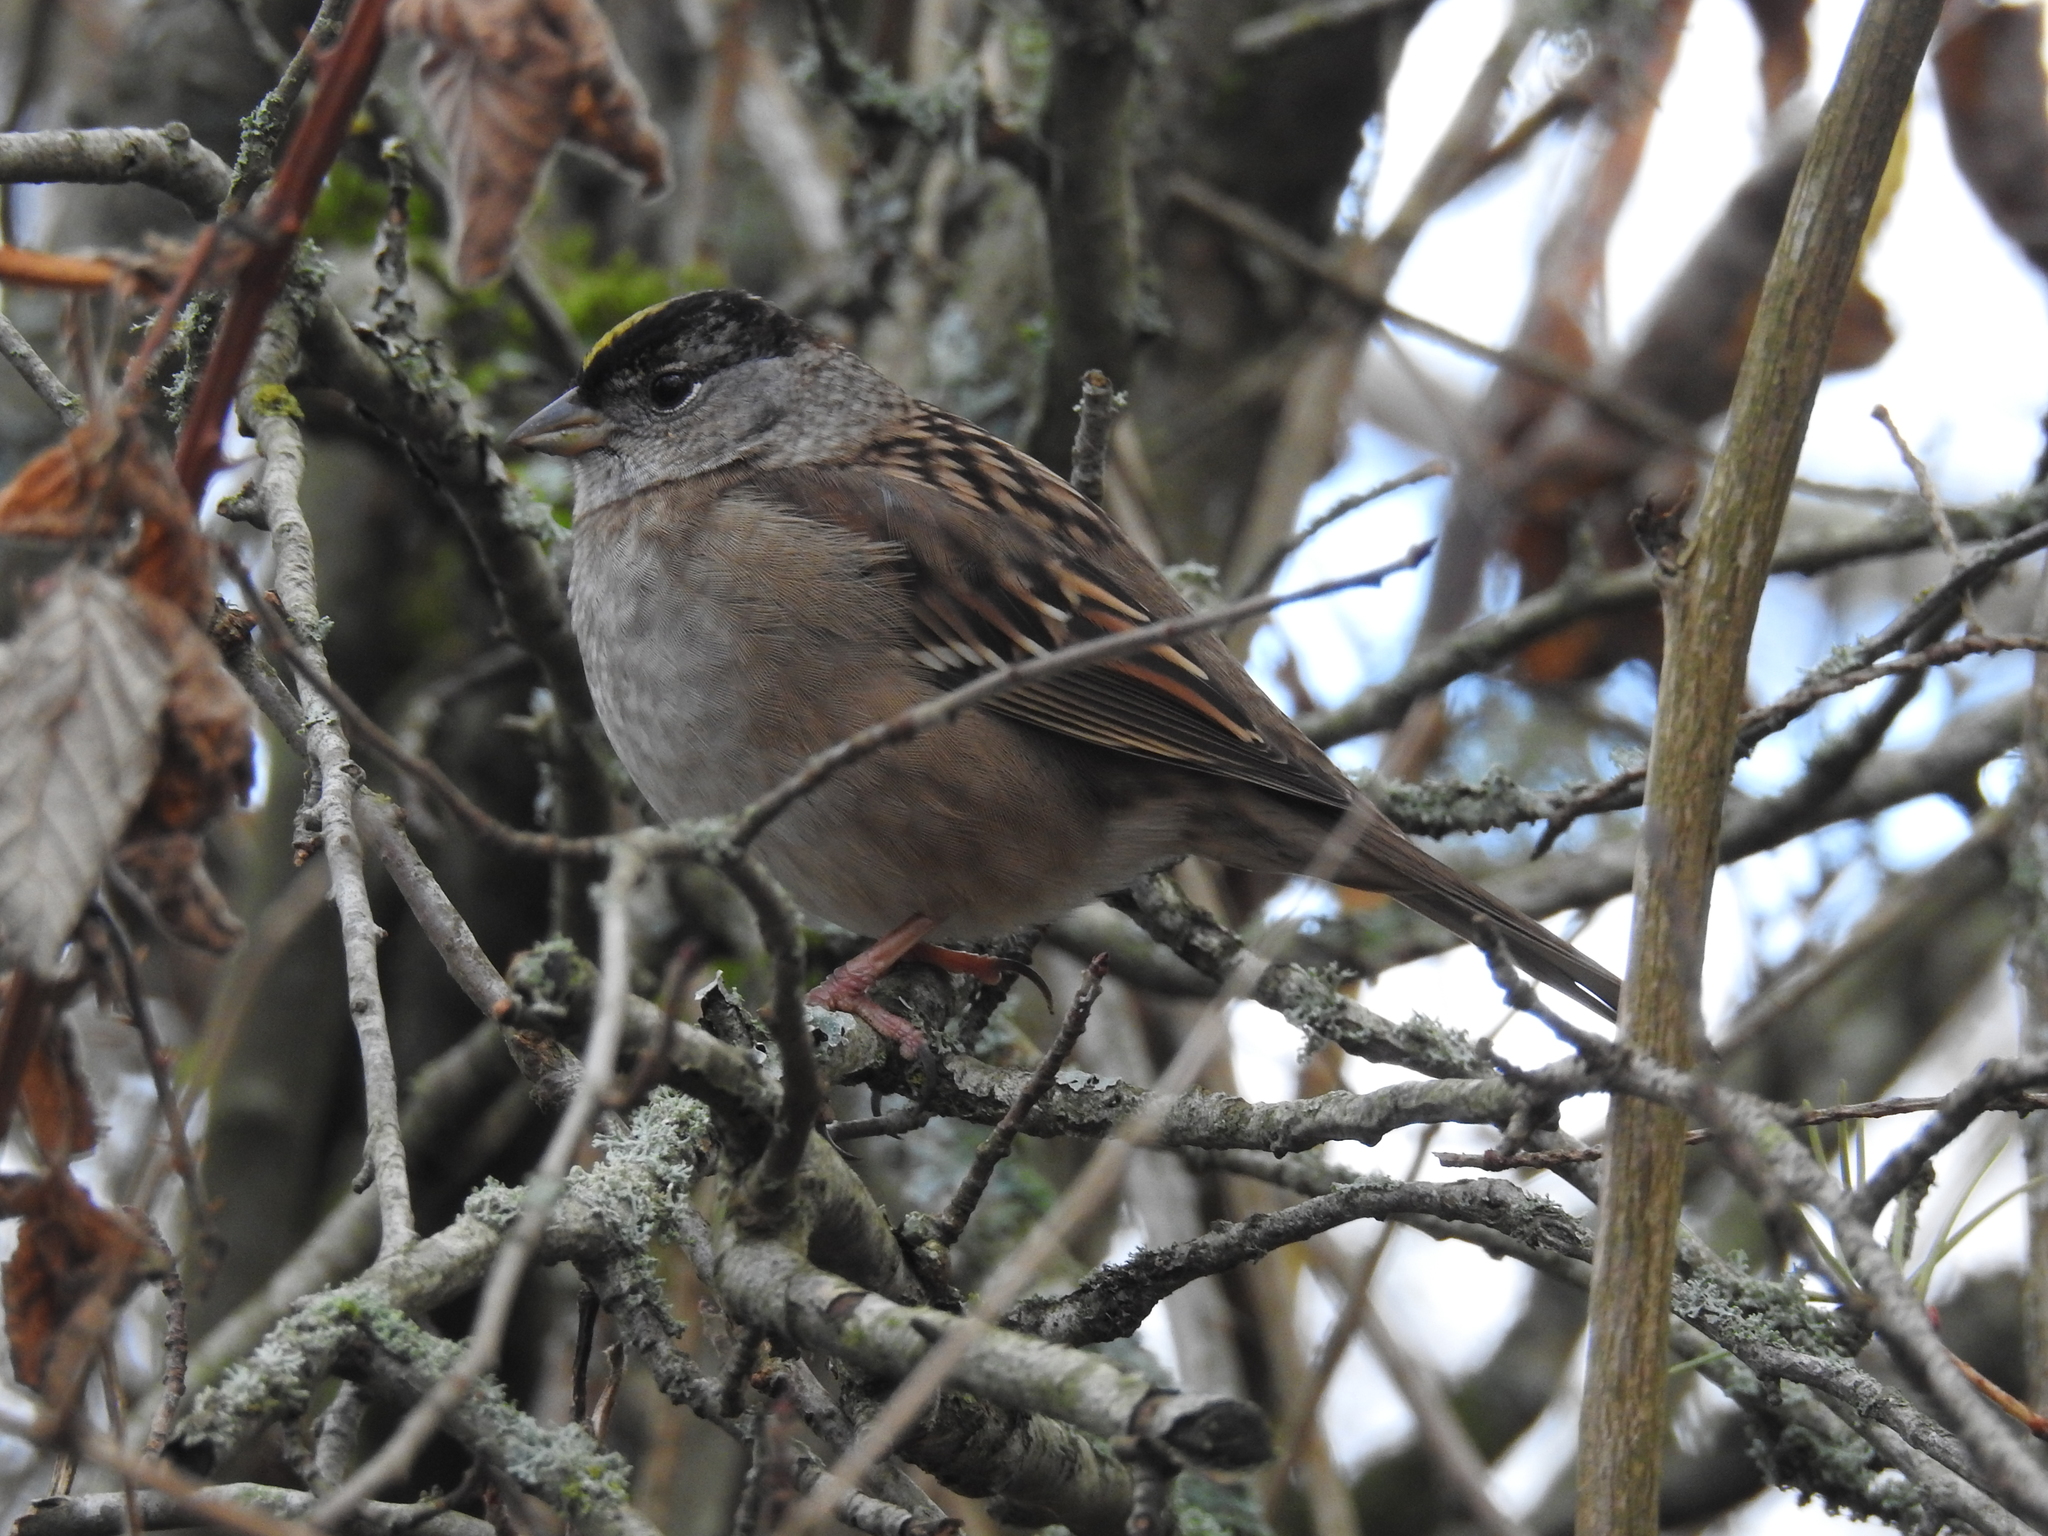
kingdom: Animalia
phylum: Chordata
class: Aves
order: Passeriformes
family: Passerellidae
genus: Zonotrichia
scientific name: Zonotrichia atricapilla
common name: Golden-crowned sparrow
